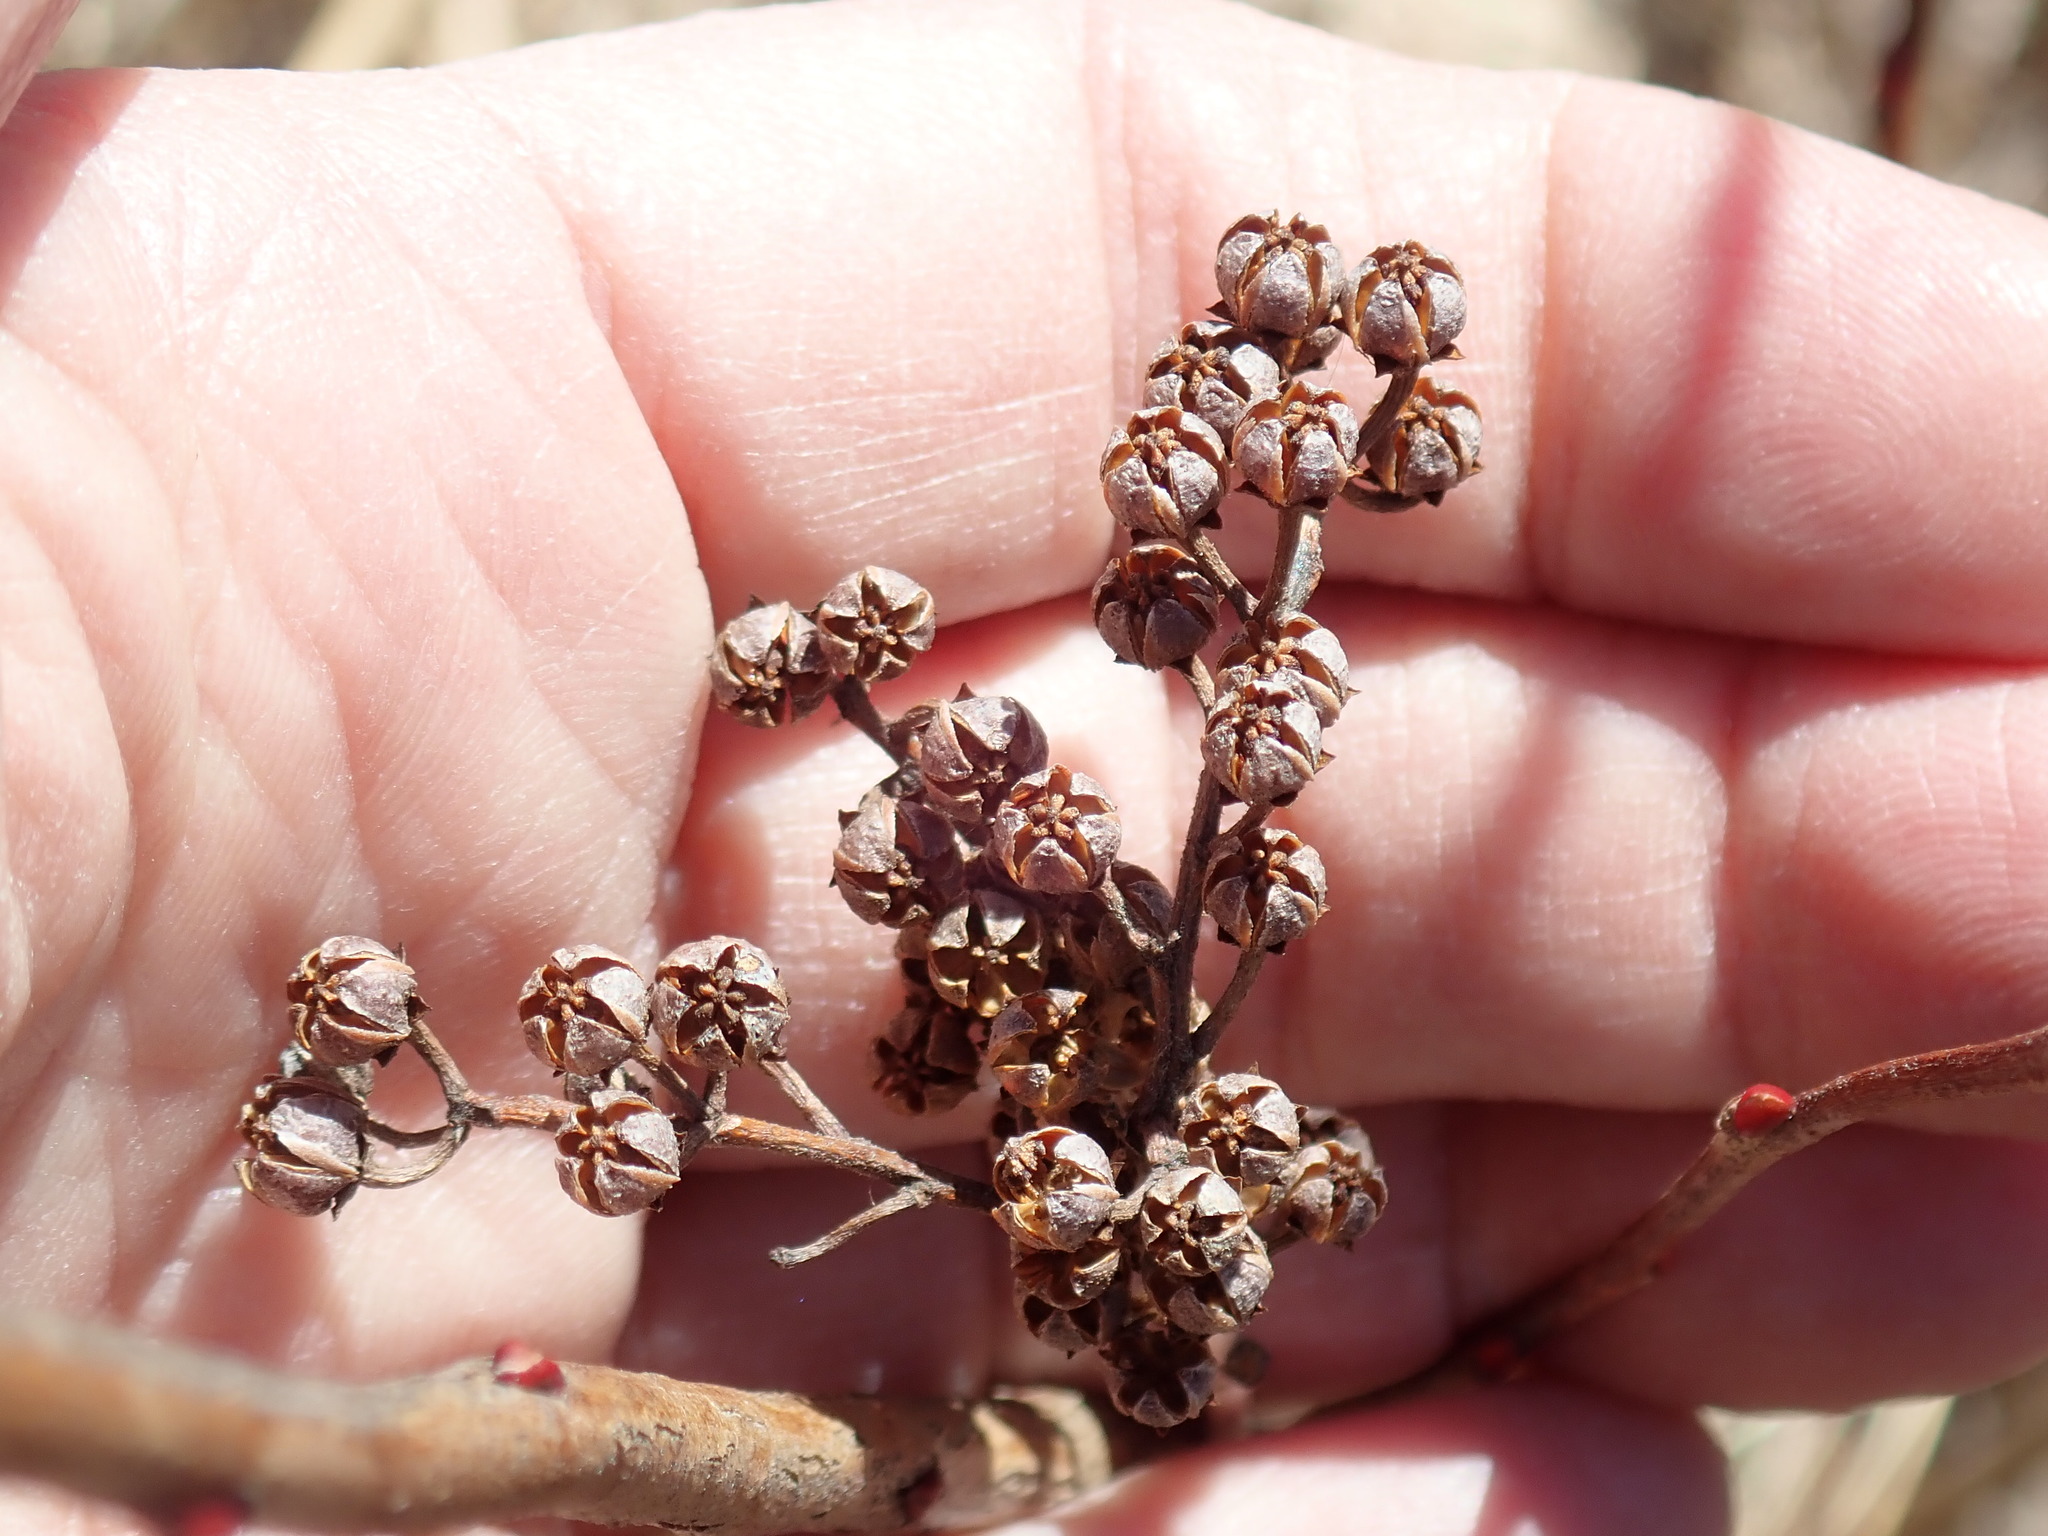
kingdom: Plantae
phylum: Tracheophyta
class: Magnoliopsida
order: Ericales
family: Ericaceae
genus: Lyonia
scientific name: Lyonia ligustrina
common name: Maleberry
